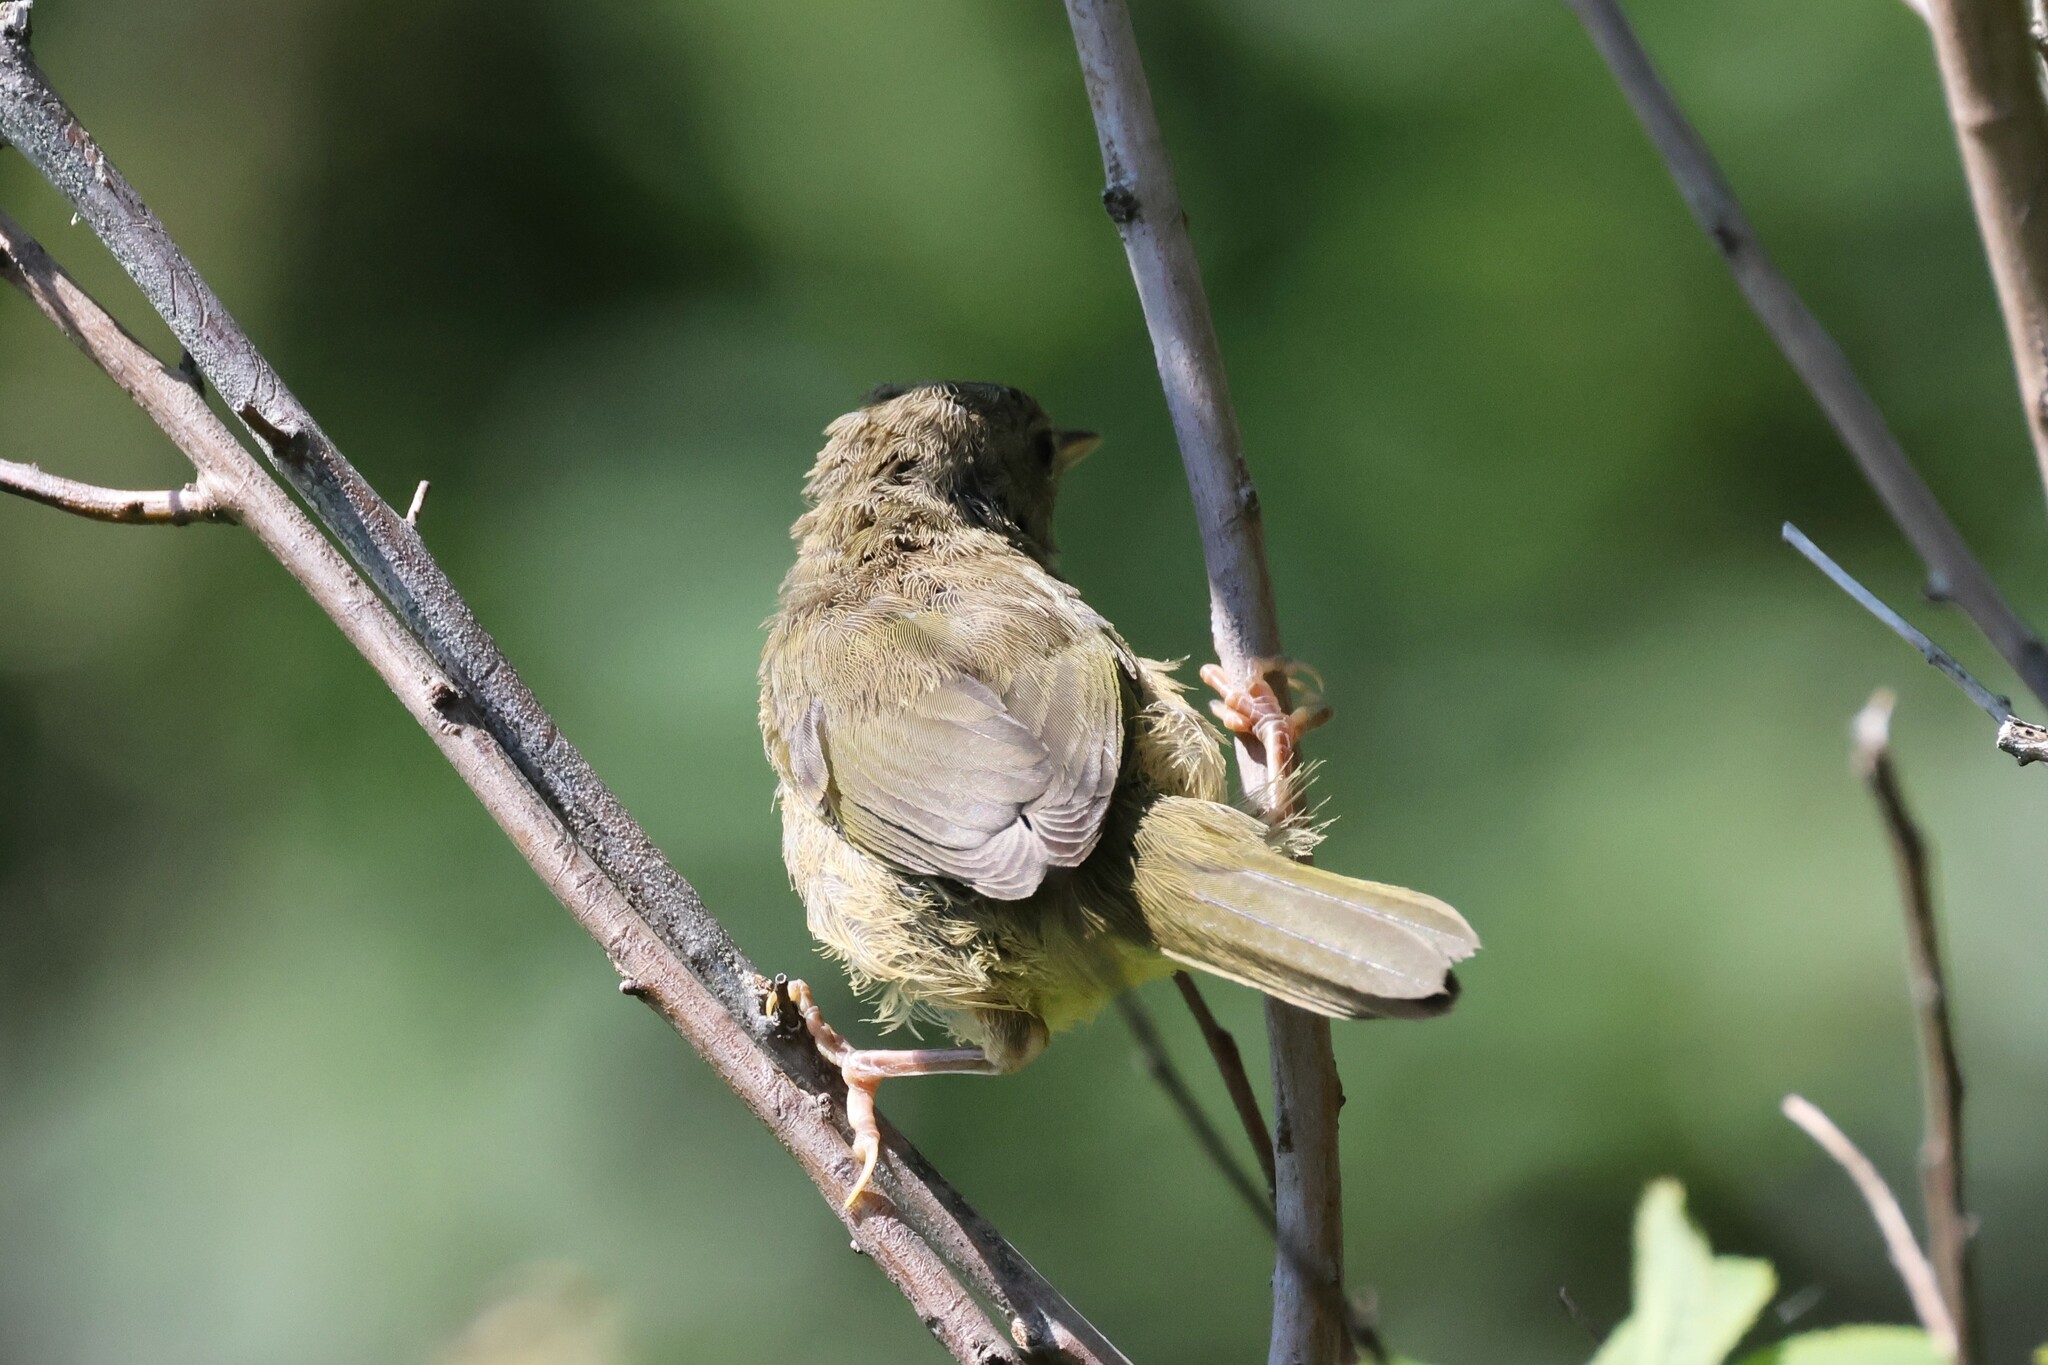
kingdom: Animalia
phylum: Chordata
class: Aves
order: Passeriformes
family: Parulidae
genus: Geothlypis
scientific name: Geothlypis trichas
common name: Common yellowthroat
